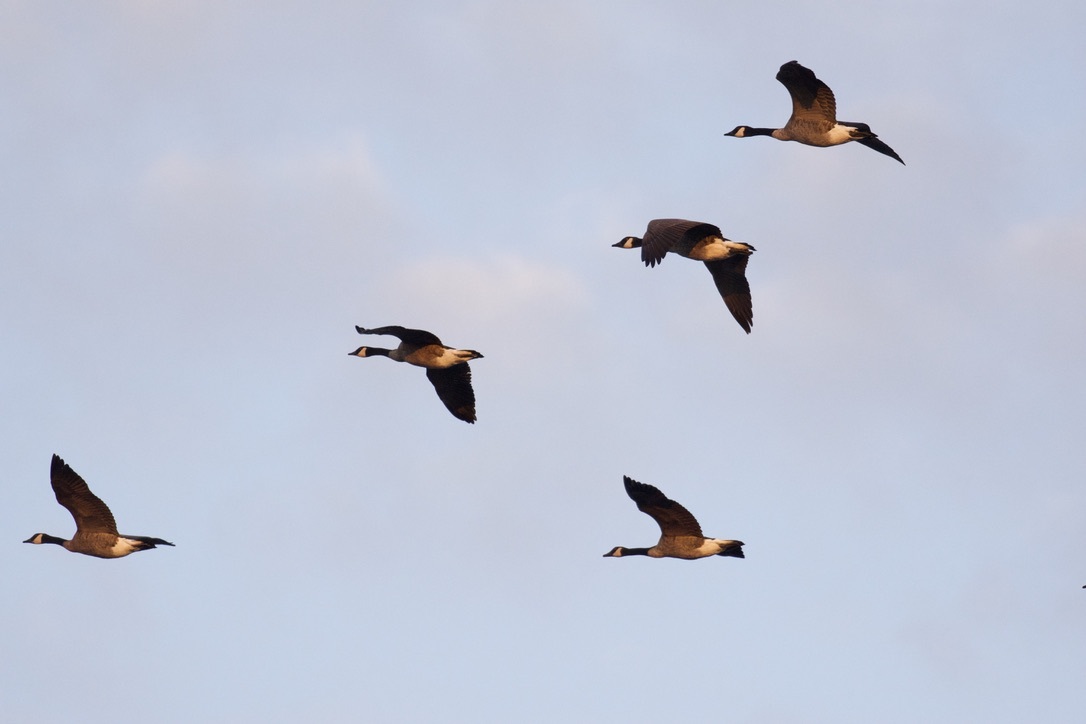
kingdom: Animalia
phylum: Chordata
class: Aves
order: Anseriformes
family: Anatidae
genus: Branta
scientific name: Branta canadensis
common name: Canada goose
